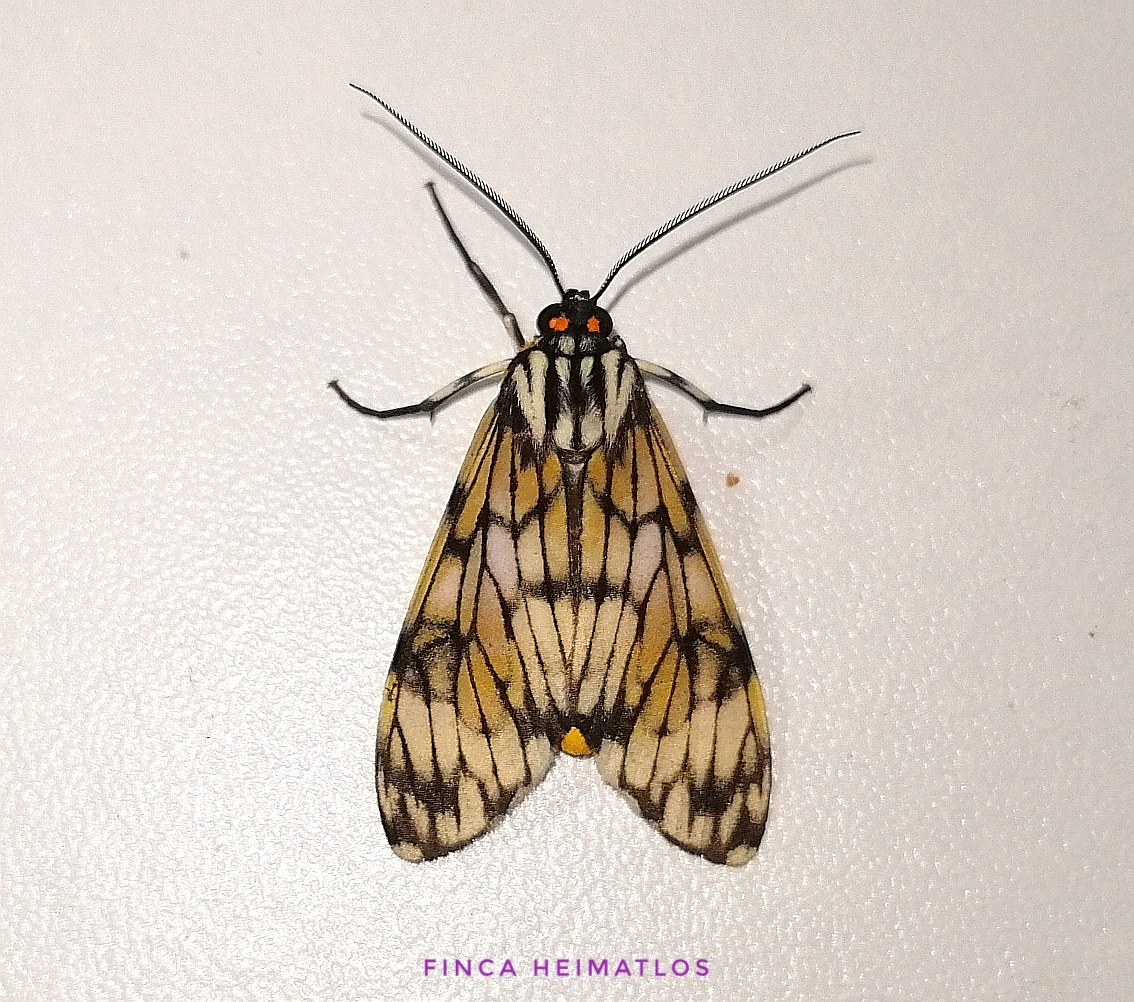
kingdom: Animalia
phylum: Arthropoda
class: Insecta
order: Lepidoptera
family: Erebidae
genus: Theages
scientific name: Theages flavicaput
